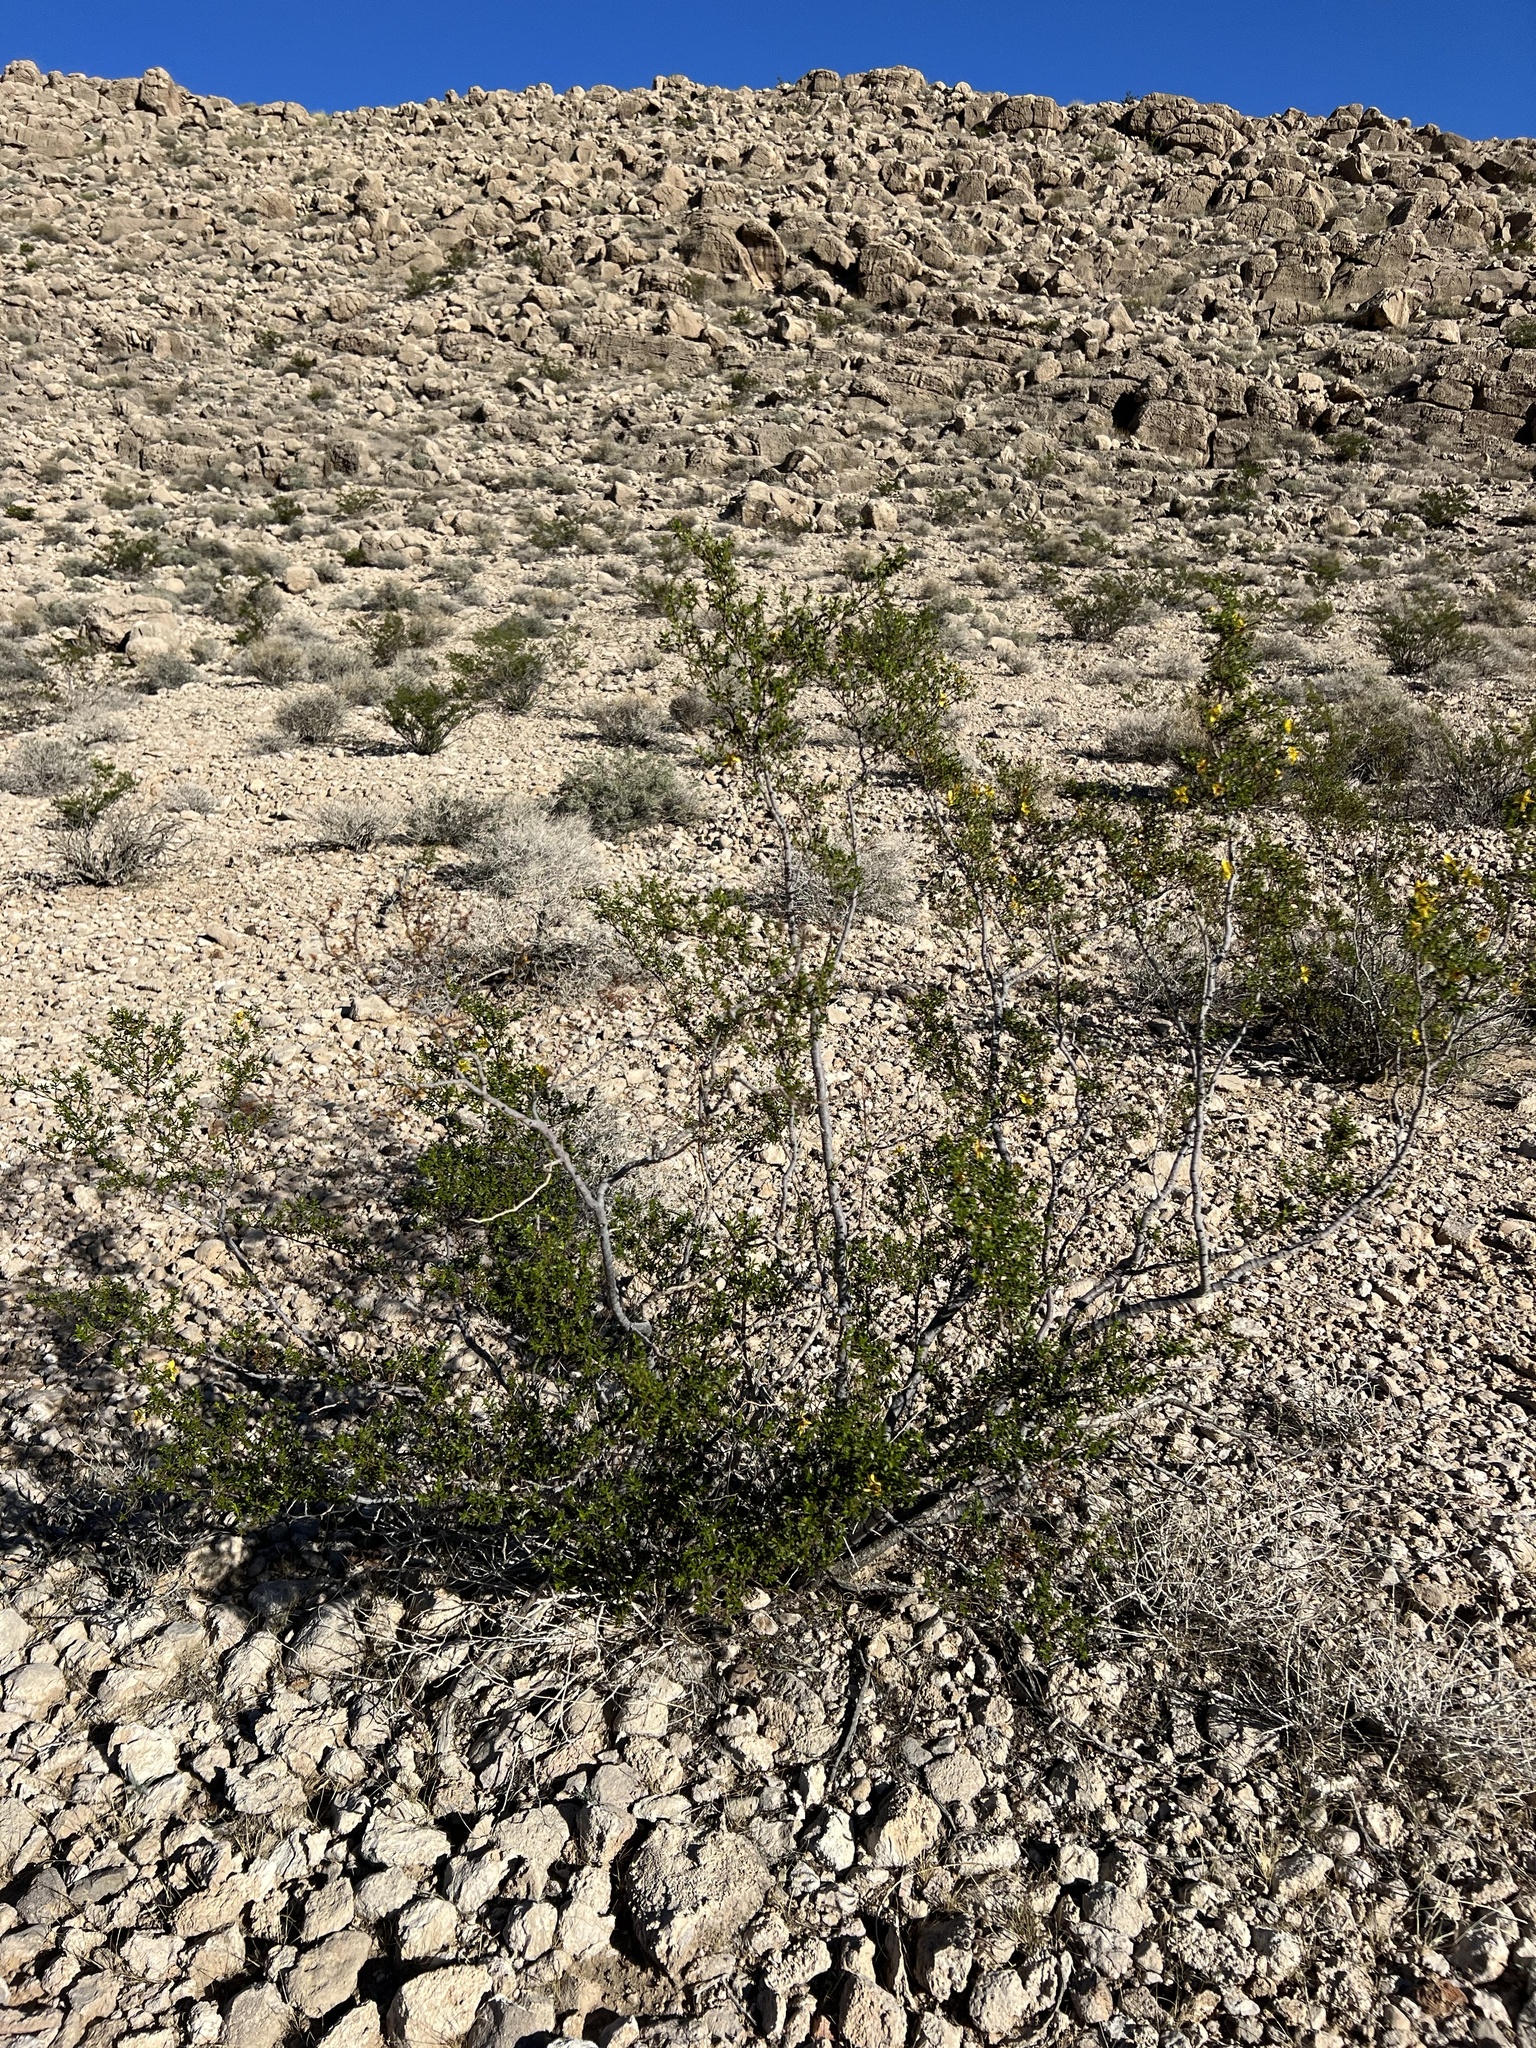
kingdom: Plantae
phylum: Tracheophyta
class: Magnoliopsida
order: Zygophyllales
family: Zygophyllaceae
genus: Larrea
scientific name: Larrea tridentata
